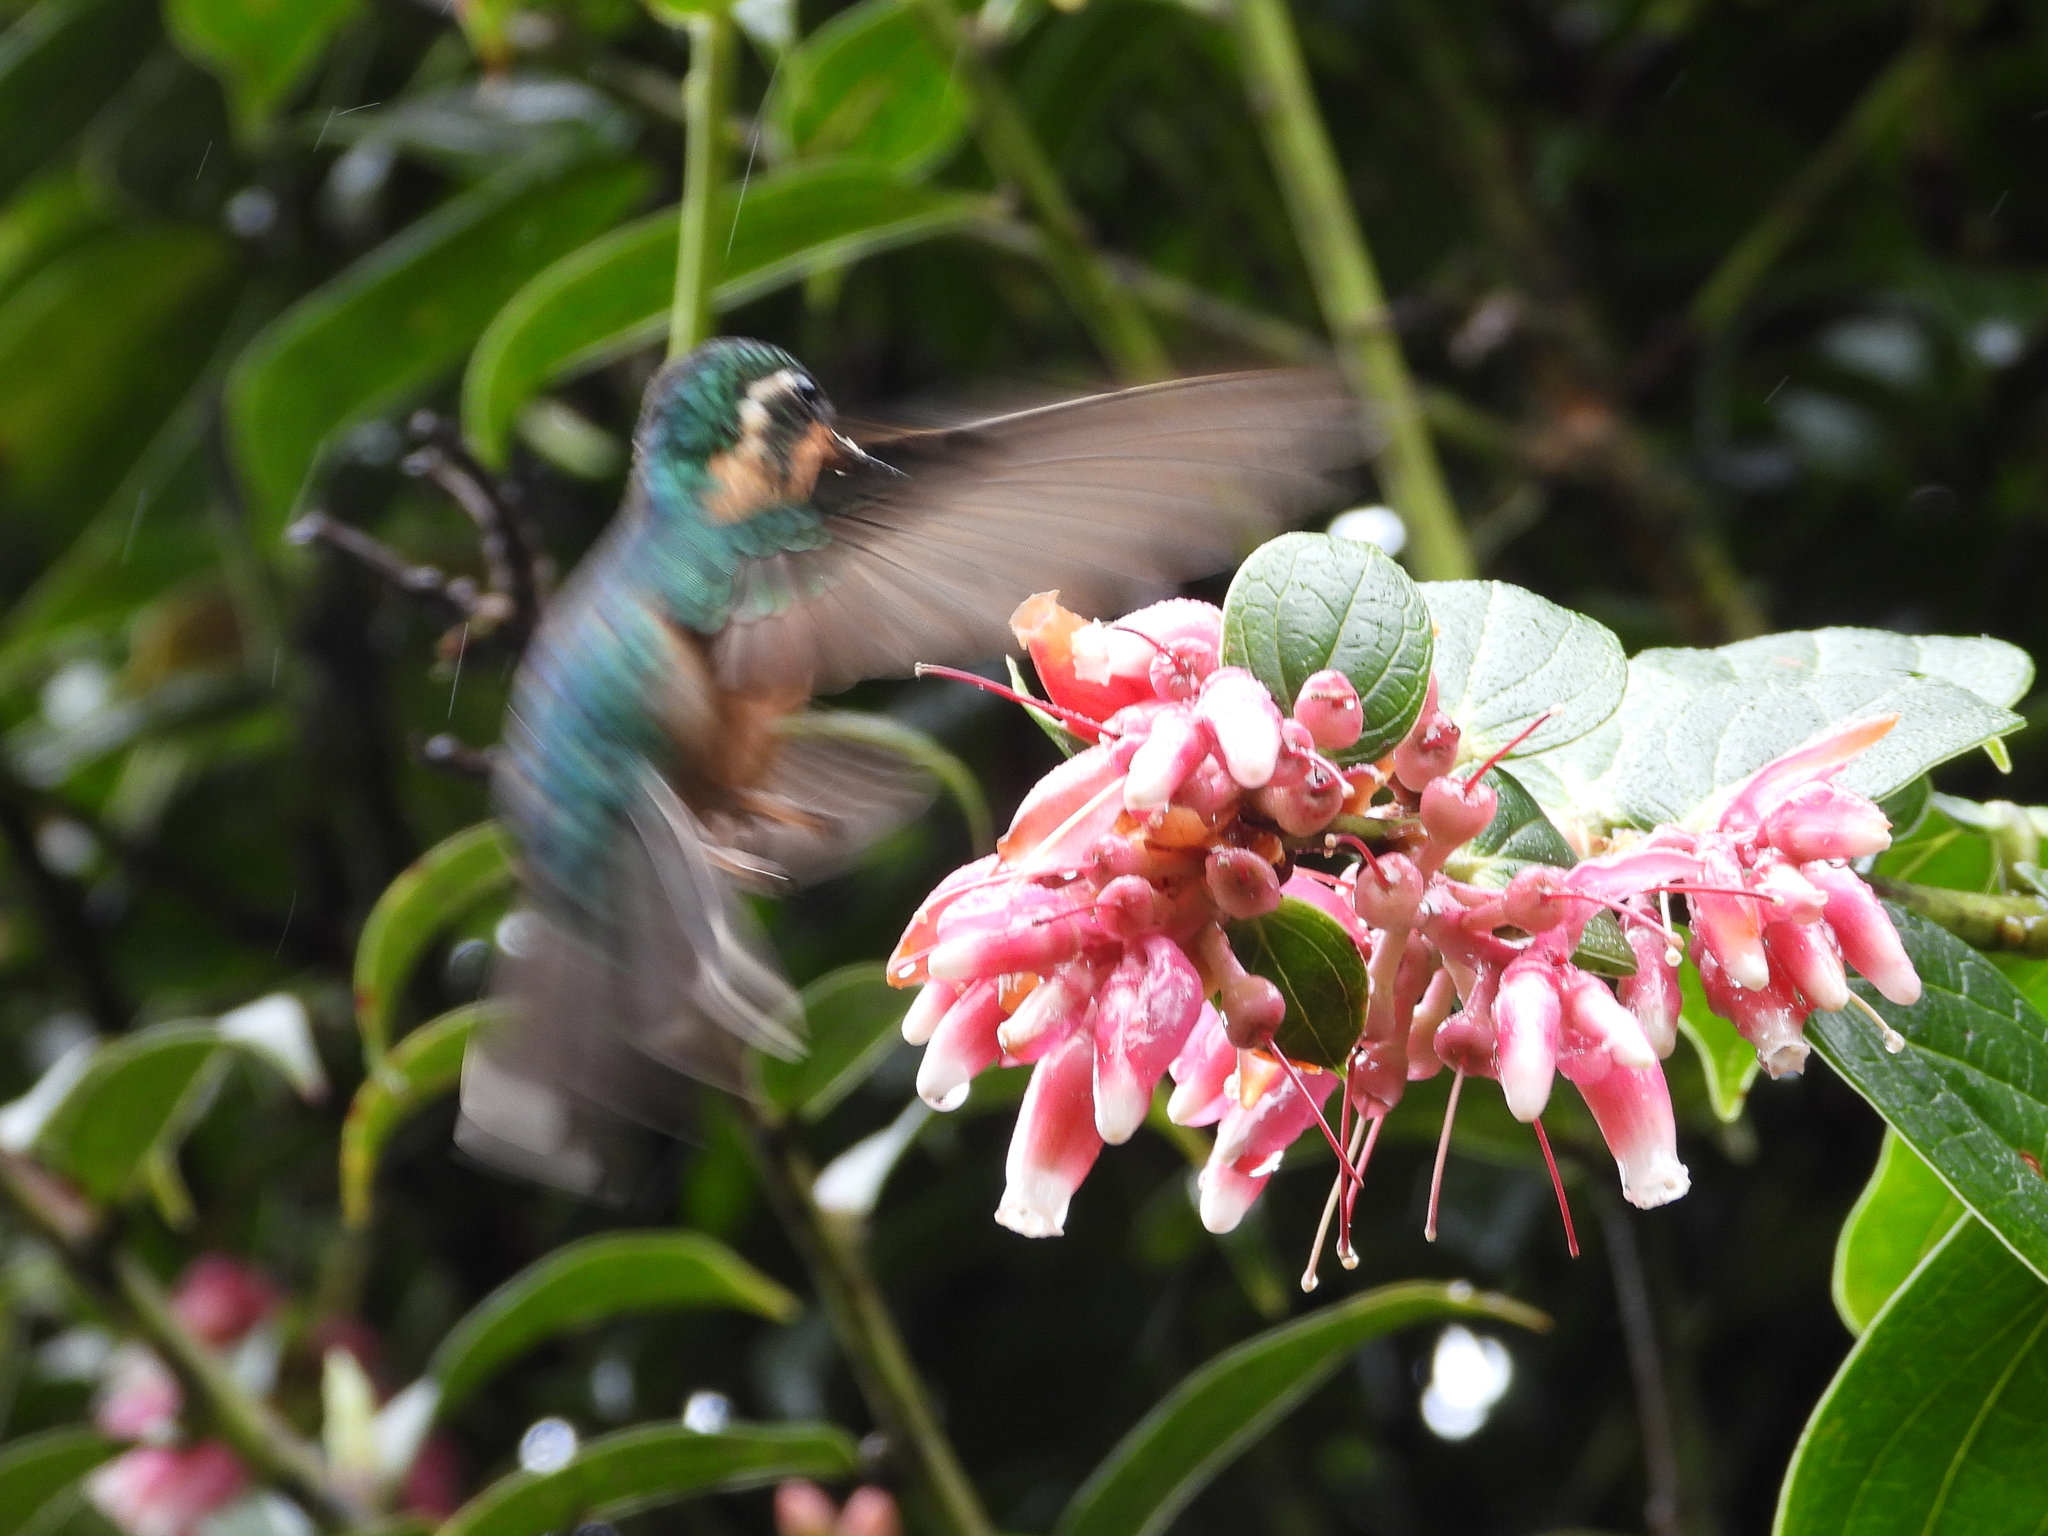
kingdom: Animalia
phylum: Chordata
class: Aves
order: Apodiformes
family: Trochilidae
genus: Lampornis
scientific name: Lampornis castaneoventris
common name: White-throated mountain-gem
